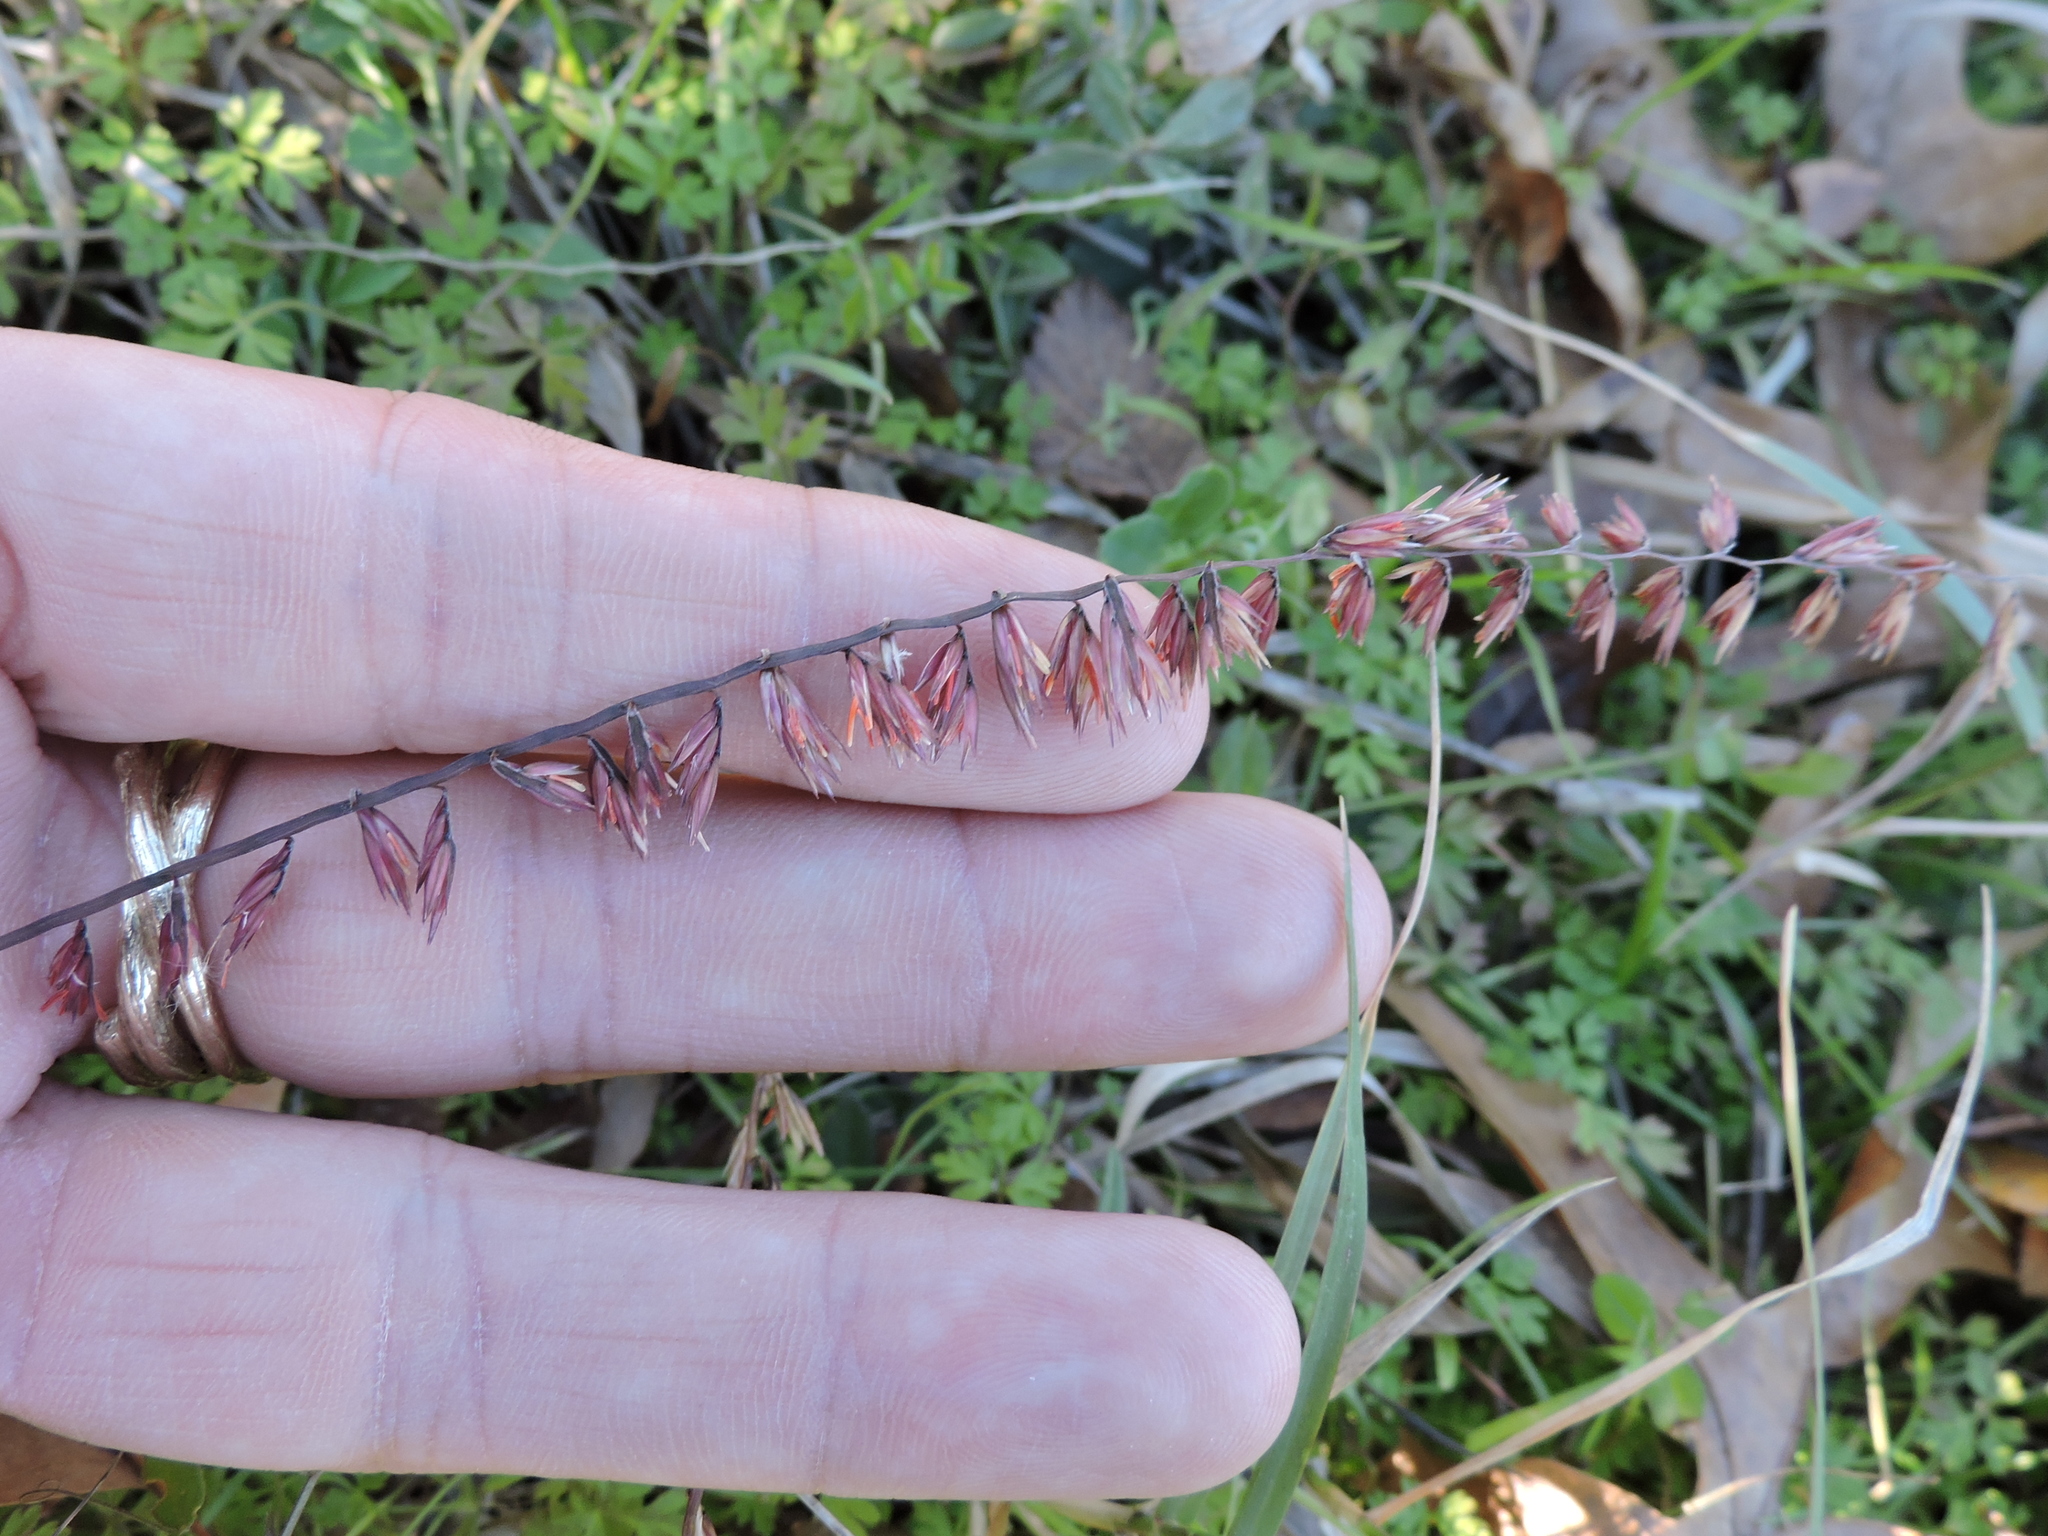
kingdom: Plantae
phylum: Tracheophyta
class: Liliopsida
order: Poales
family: Poaceae
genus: Bouteloua
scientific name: Bouteloua curtipendula
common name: Side-oats grama
